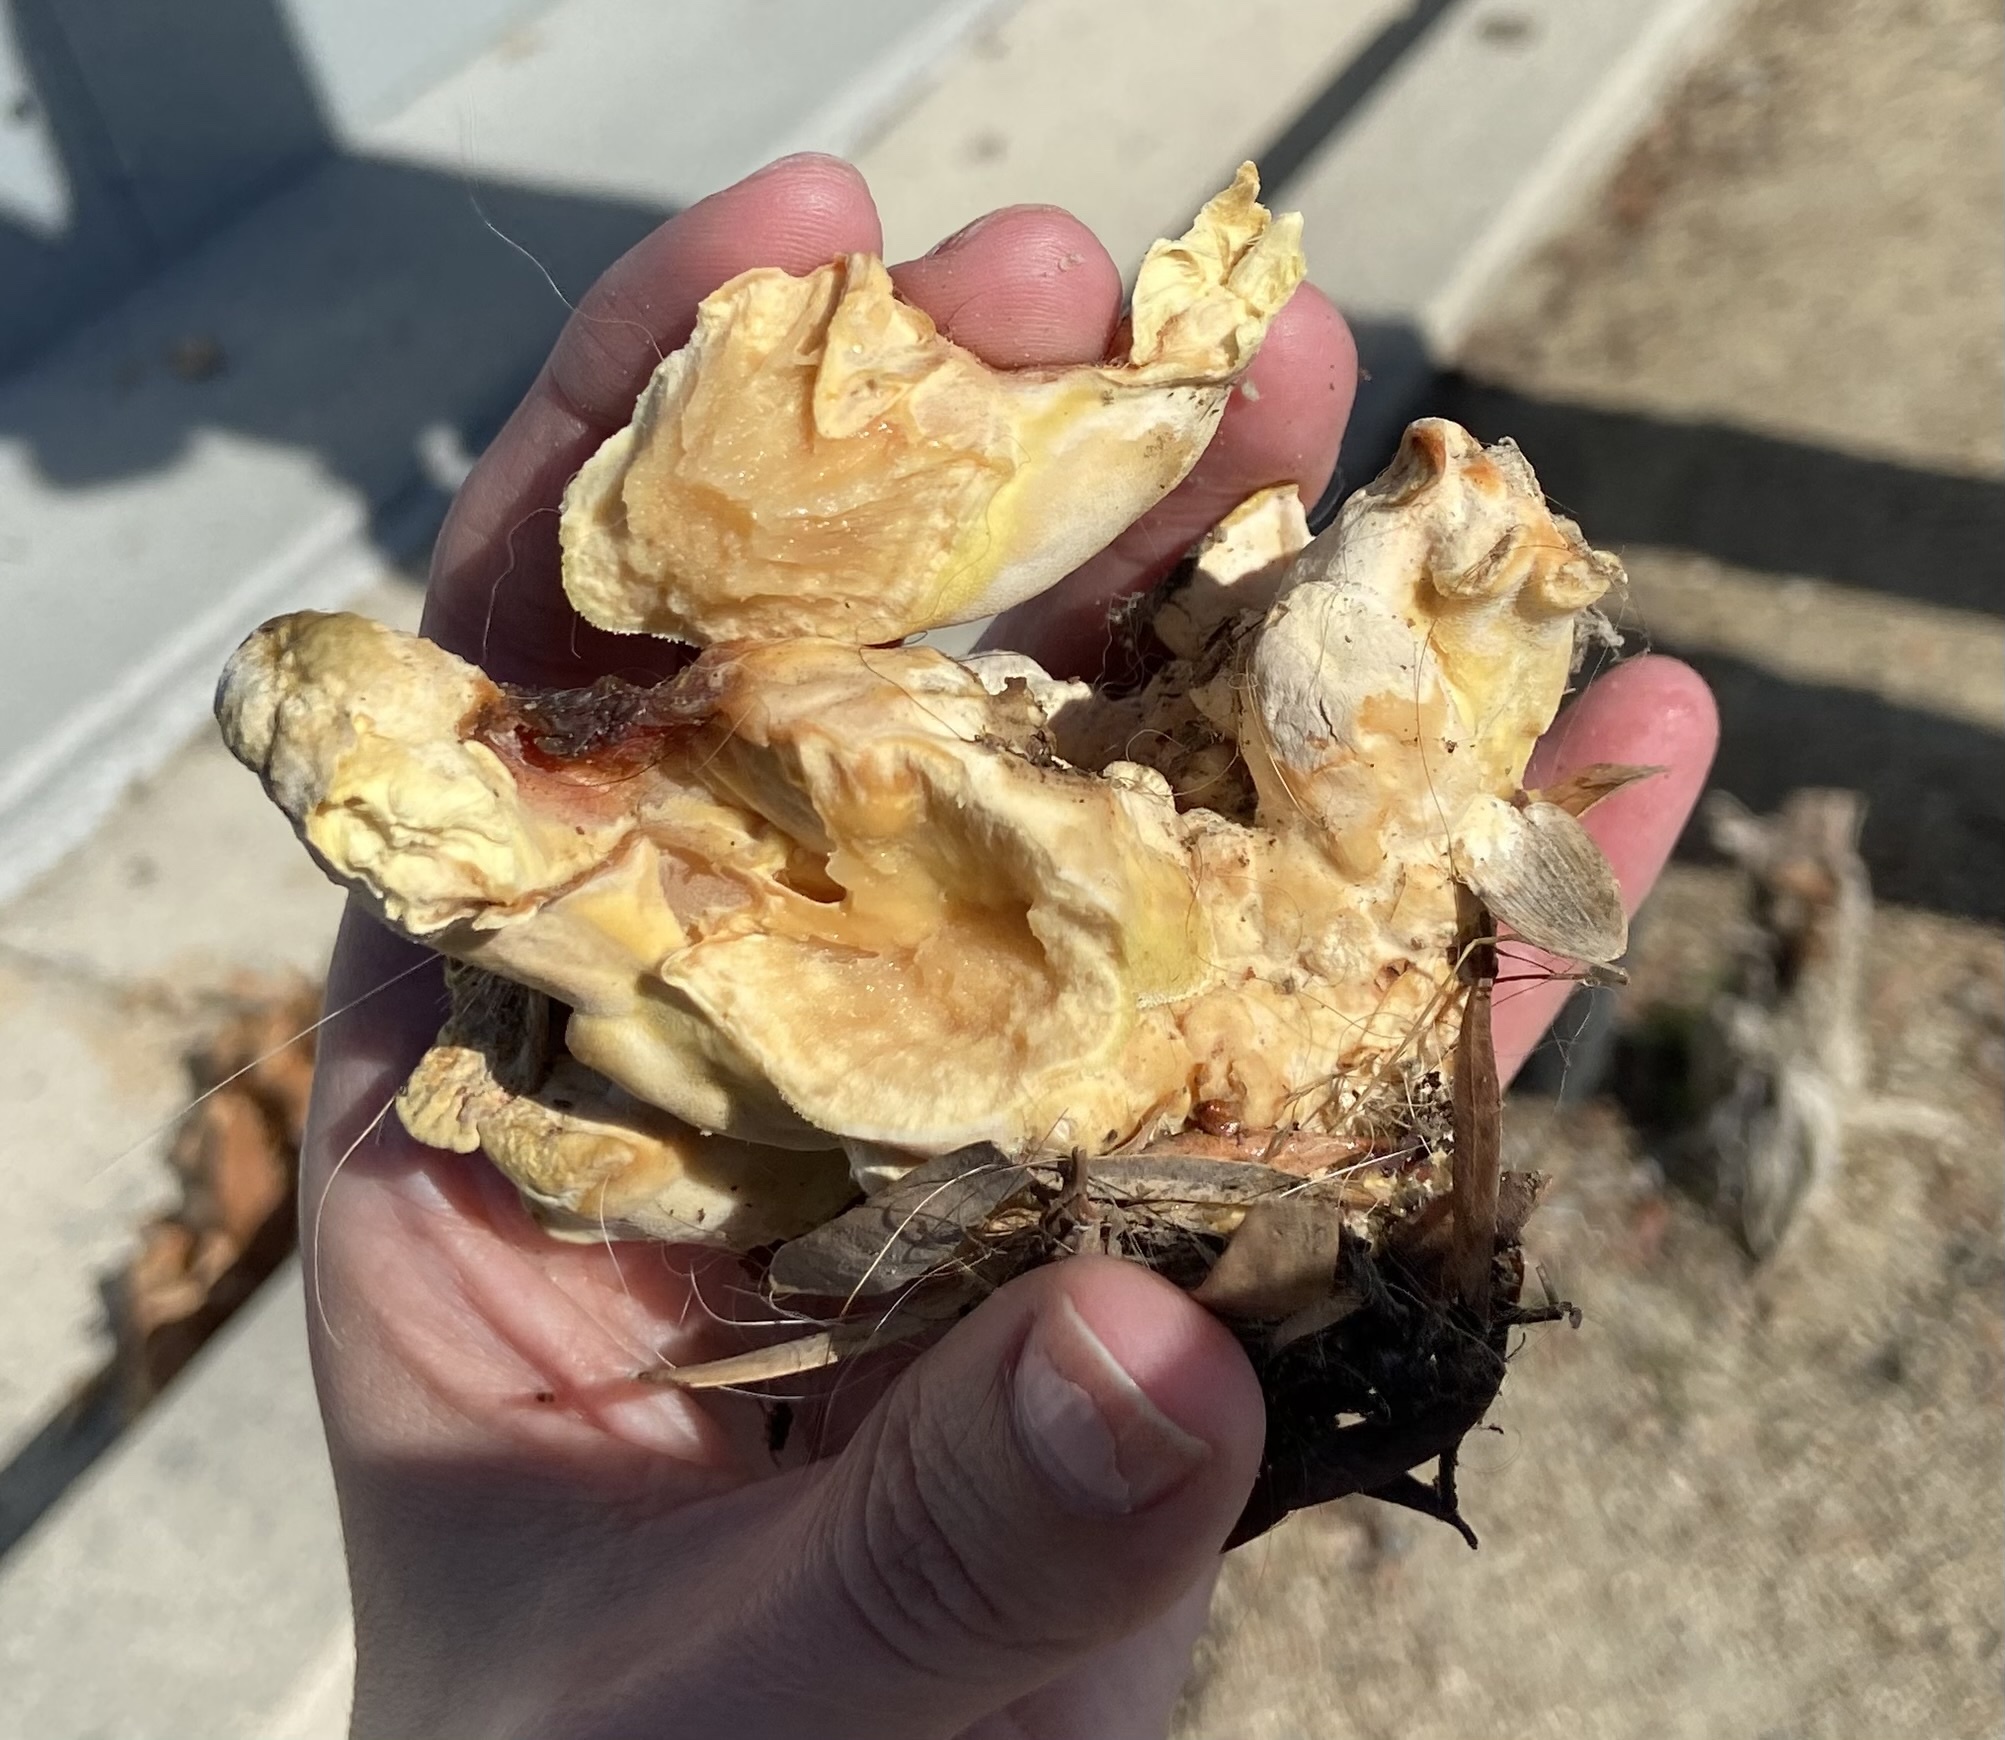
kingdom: Fungi
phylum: Basidiomycota
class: Agaricomycetes
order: Polyporales
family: Laetiporaceae
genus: Laetiporus
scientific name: Laetiporus gilbertsonii
